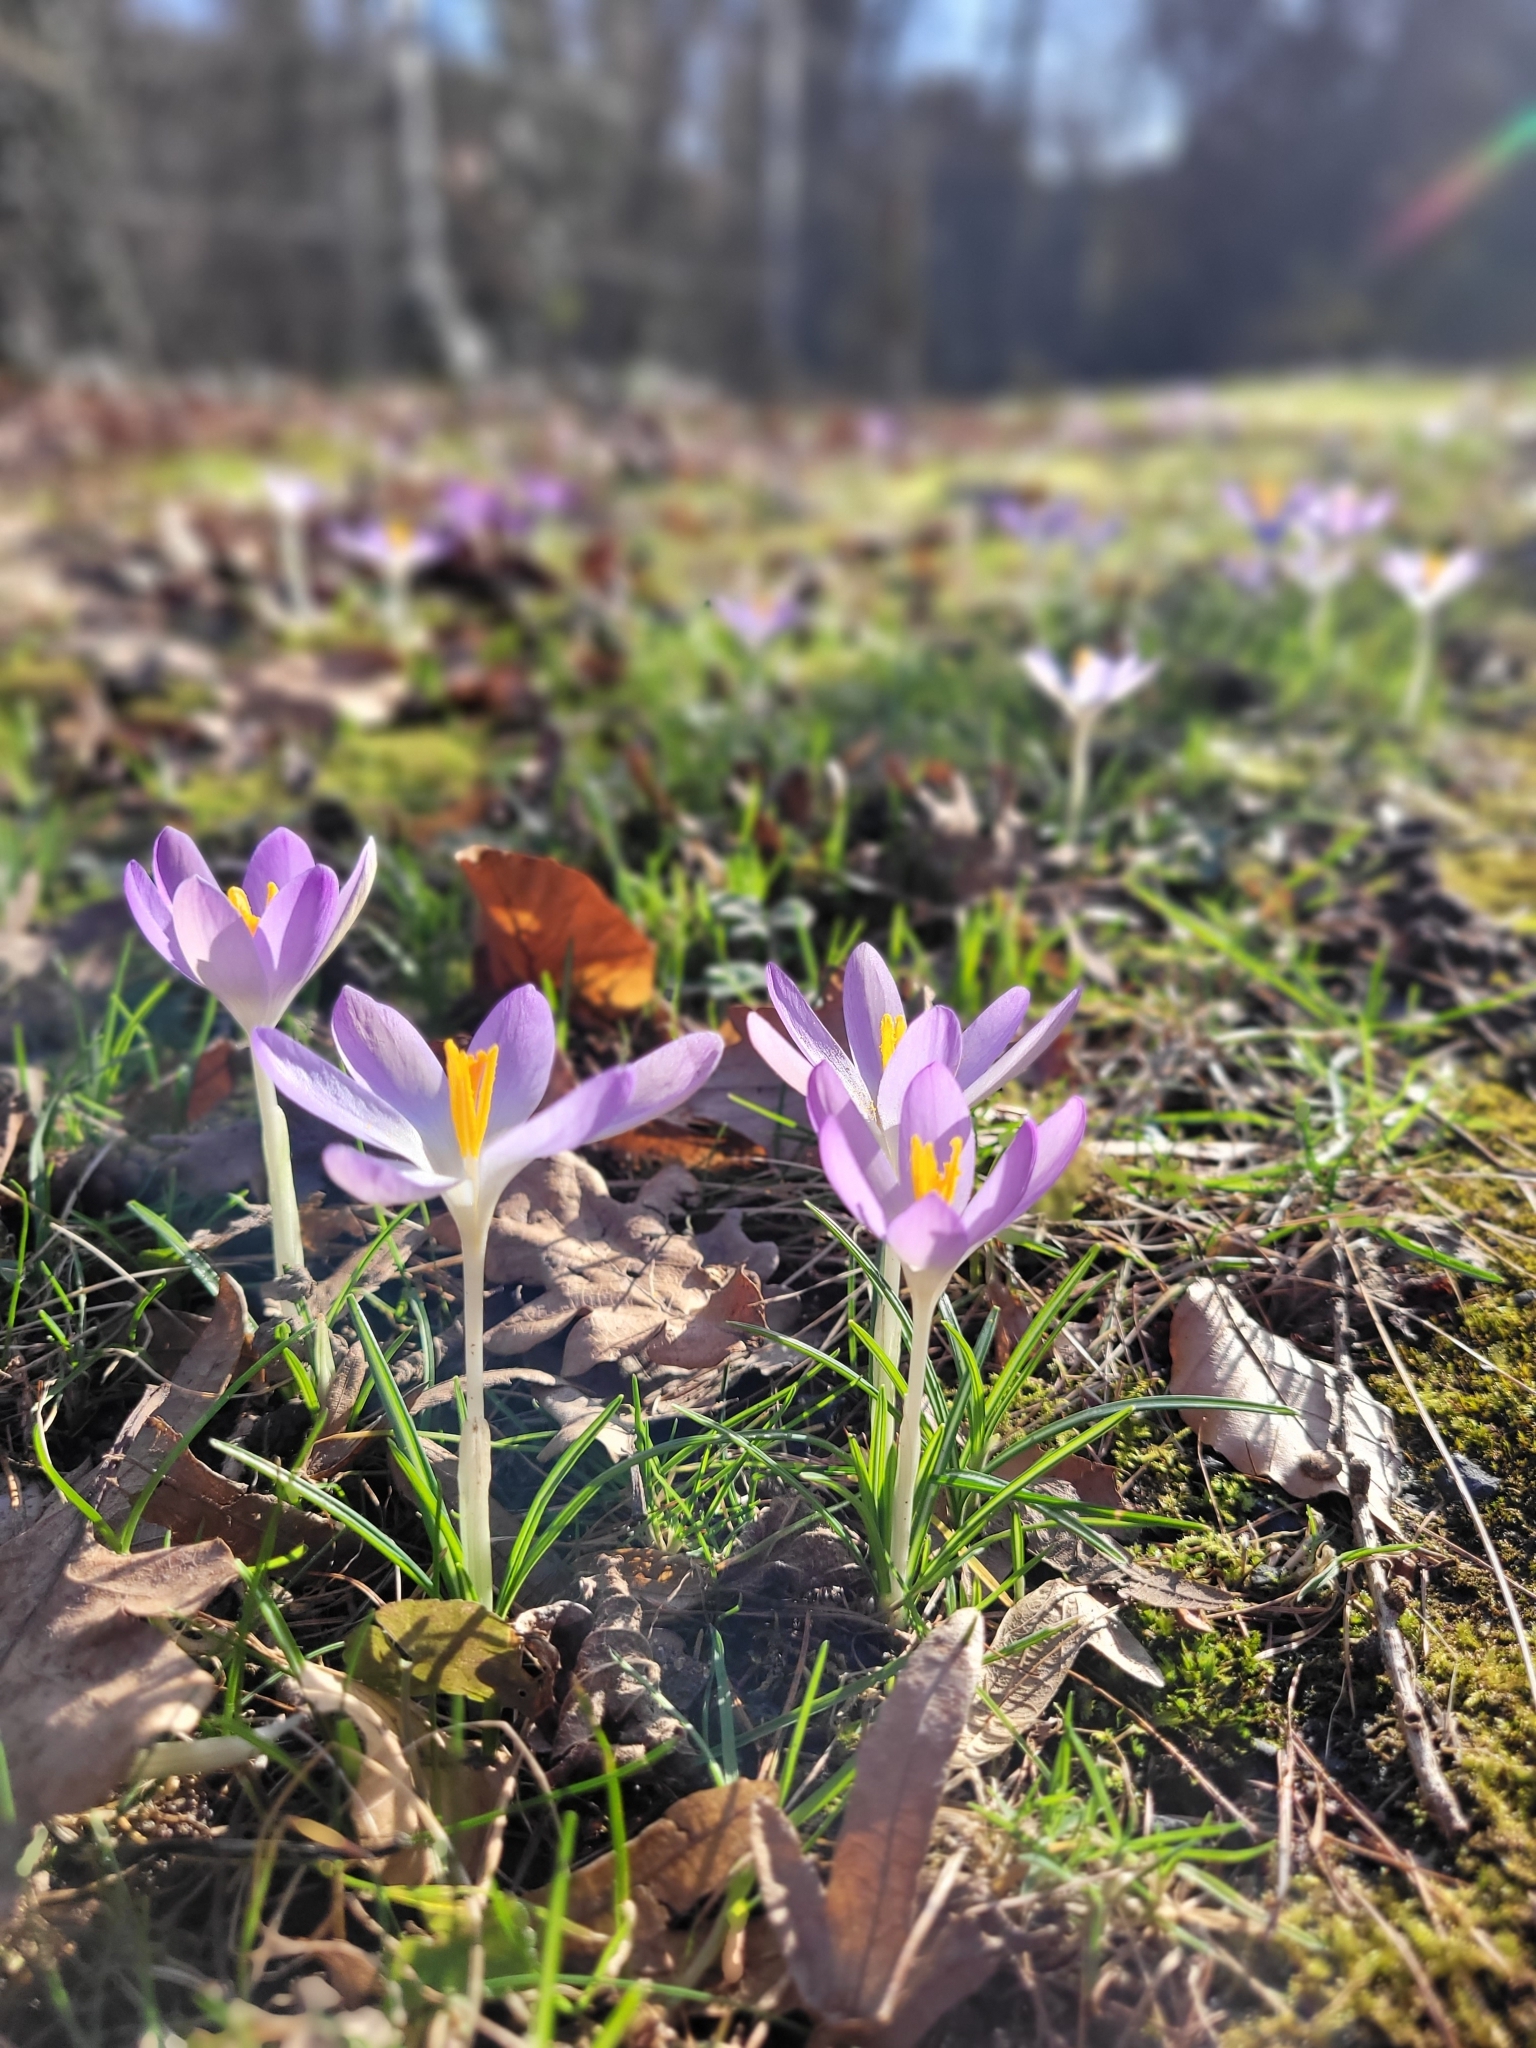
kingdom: Plantae
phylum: Tracheophyta
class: Liliopsida
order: Asparagales
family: Iridaceae
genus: Crocus
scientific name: Crocus tommasinianus
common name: Early crocus
